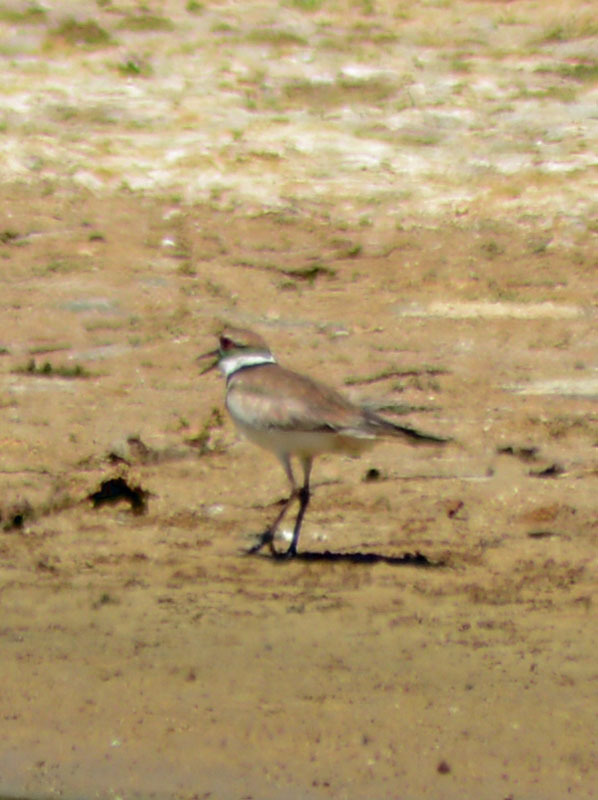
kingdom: Animalia
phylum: Chordata
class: Aves
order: Charadriiformes
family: Charadriidae
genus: Charadrius
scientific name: Charadrius vociferus
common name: Killdeer
